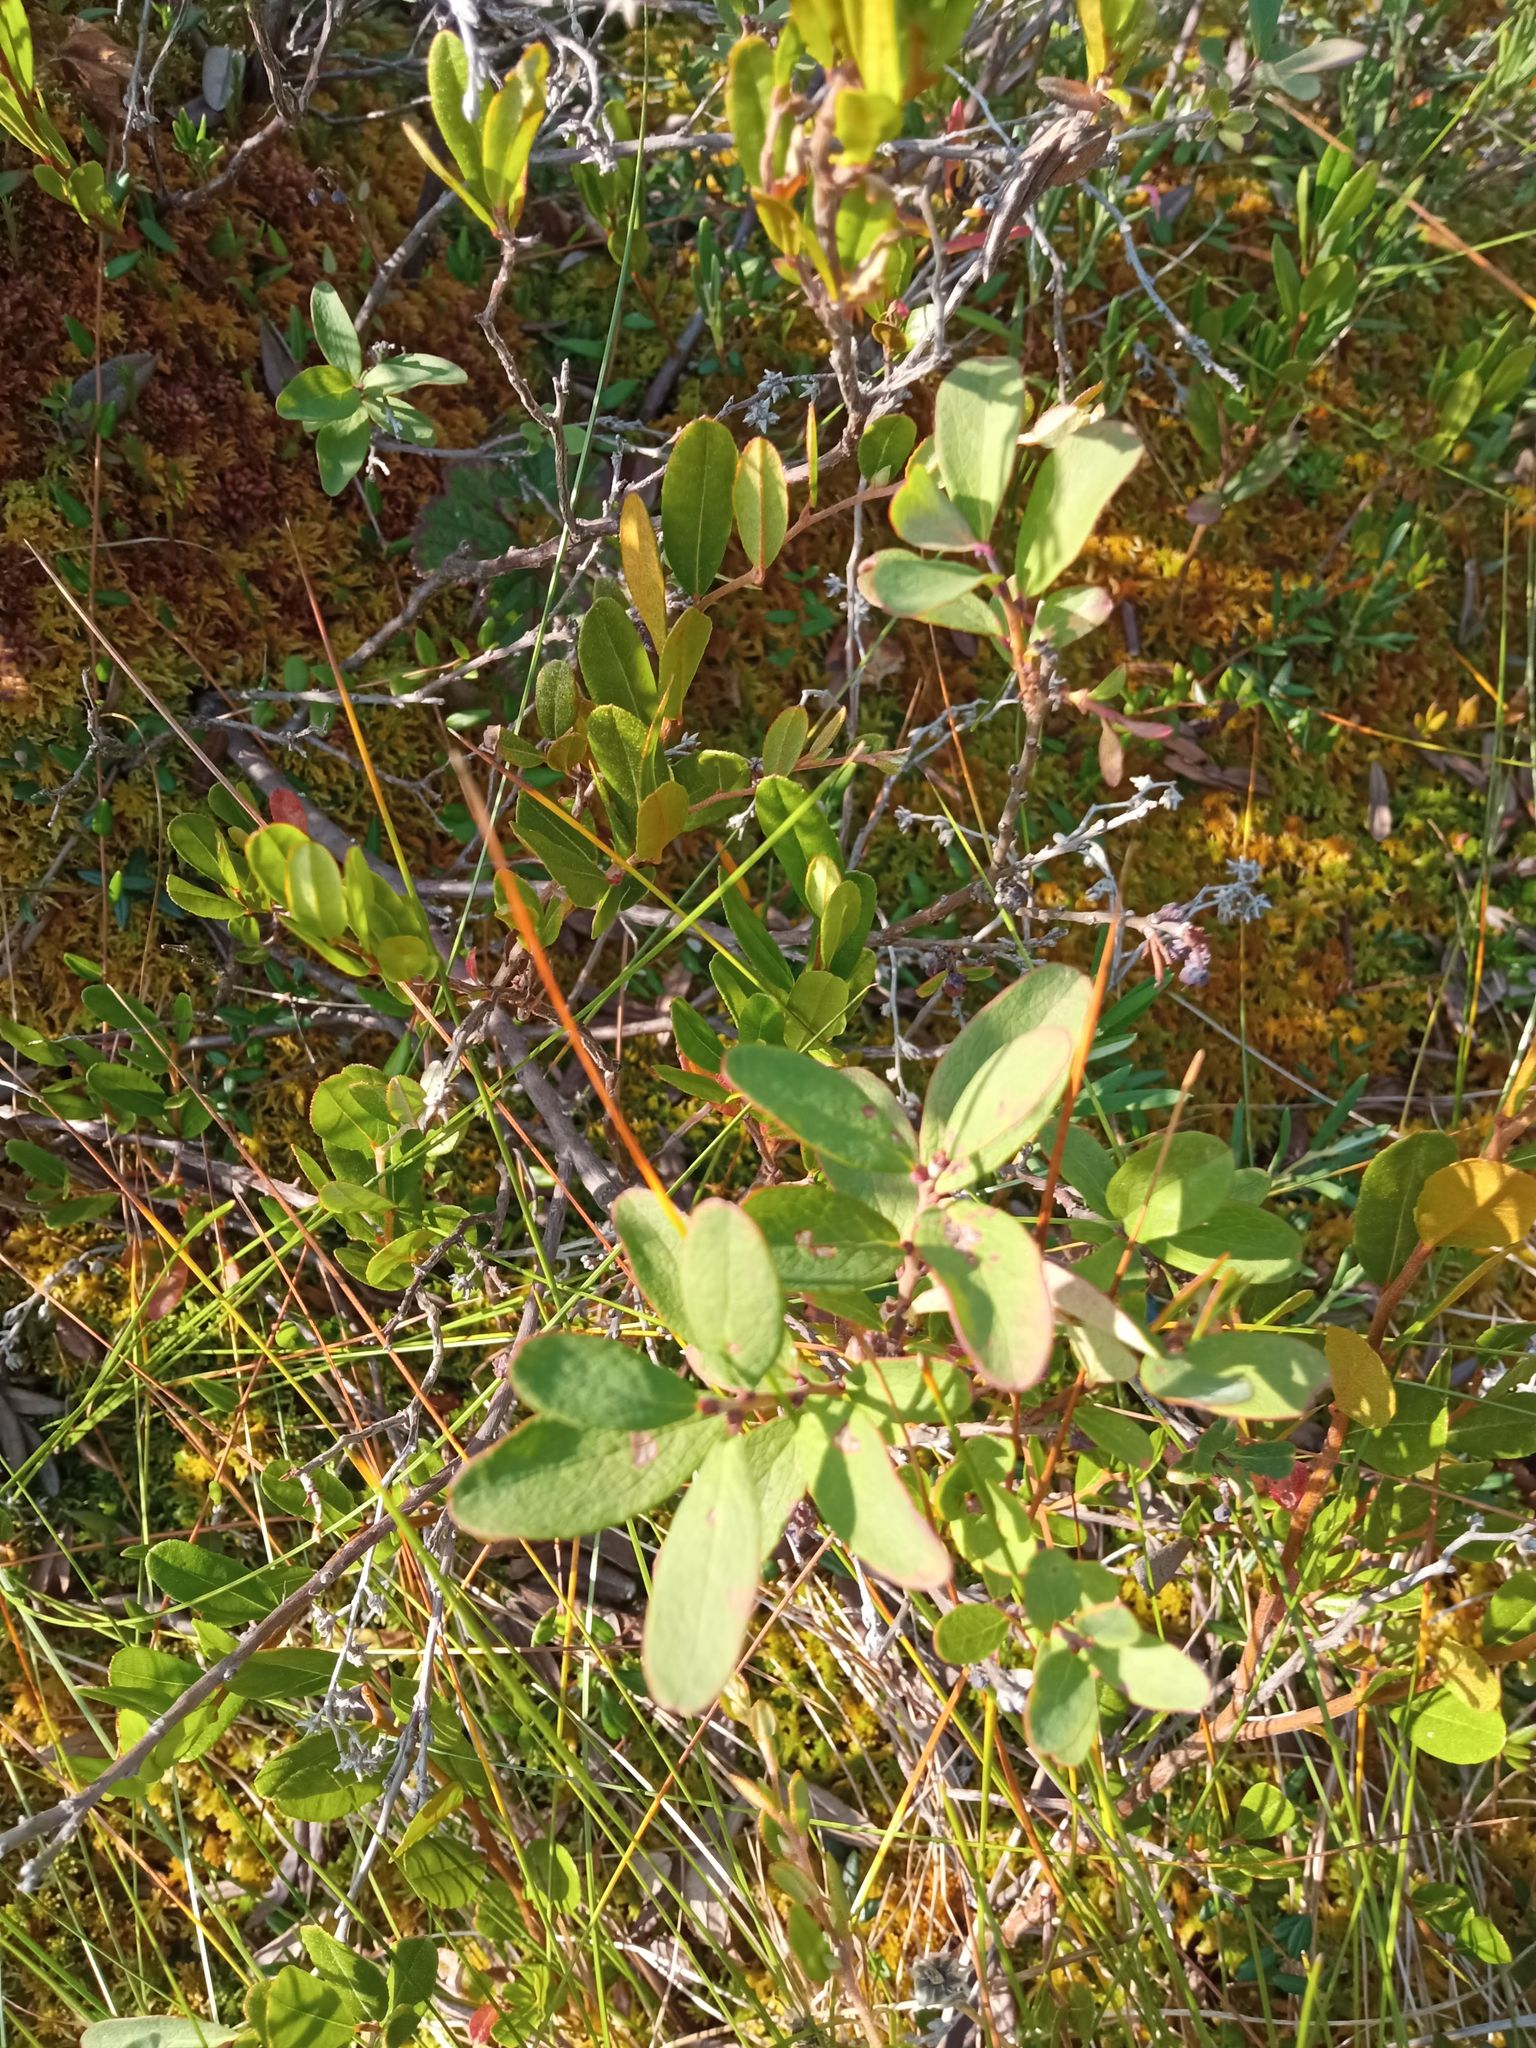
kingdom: Plantae
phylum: Tracheophyta
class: Magnoliopsida
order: Ericales
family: Ericaceae
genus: Vaccinium
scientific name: Vaccinium uliginosum
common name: Bog bilberry
